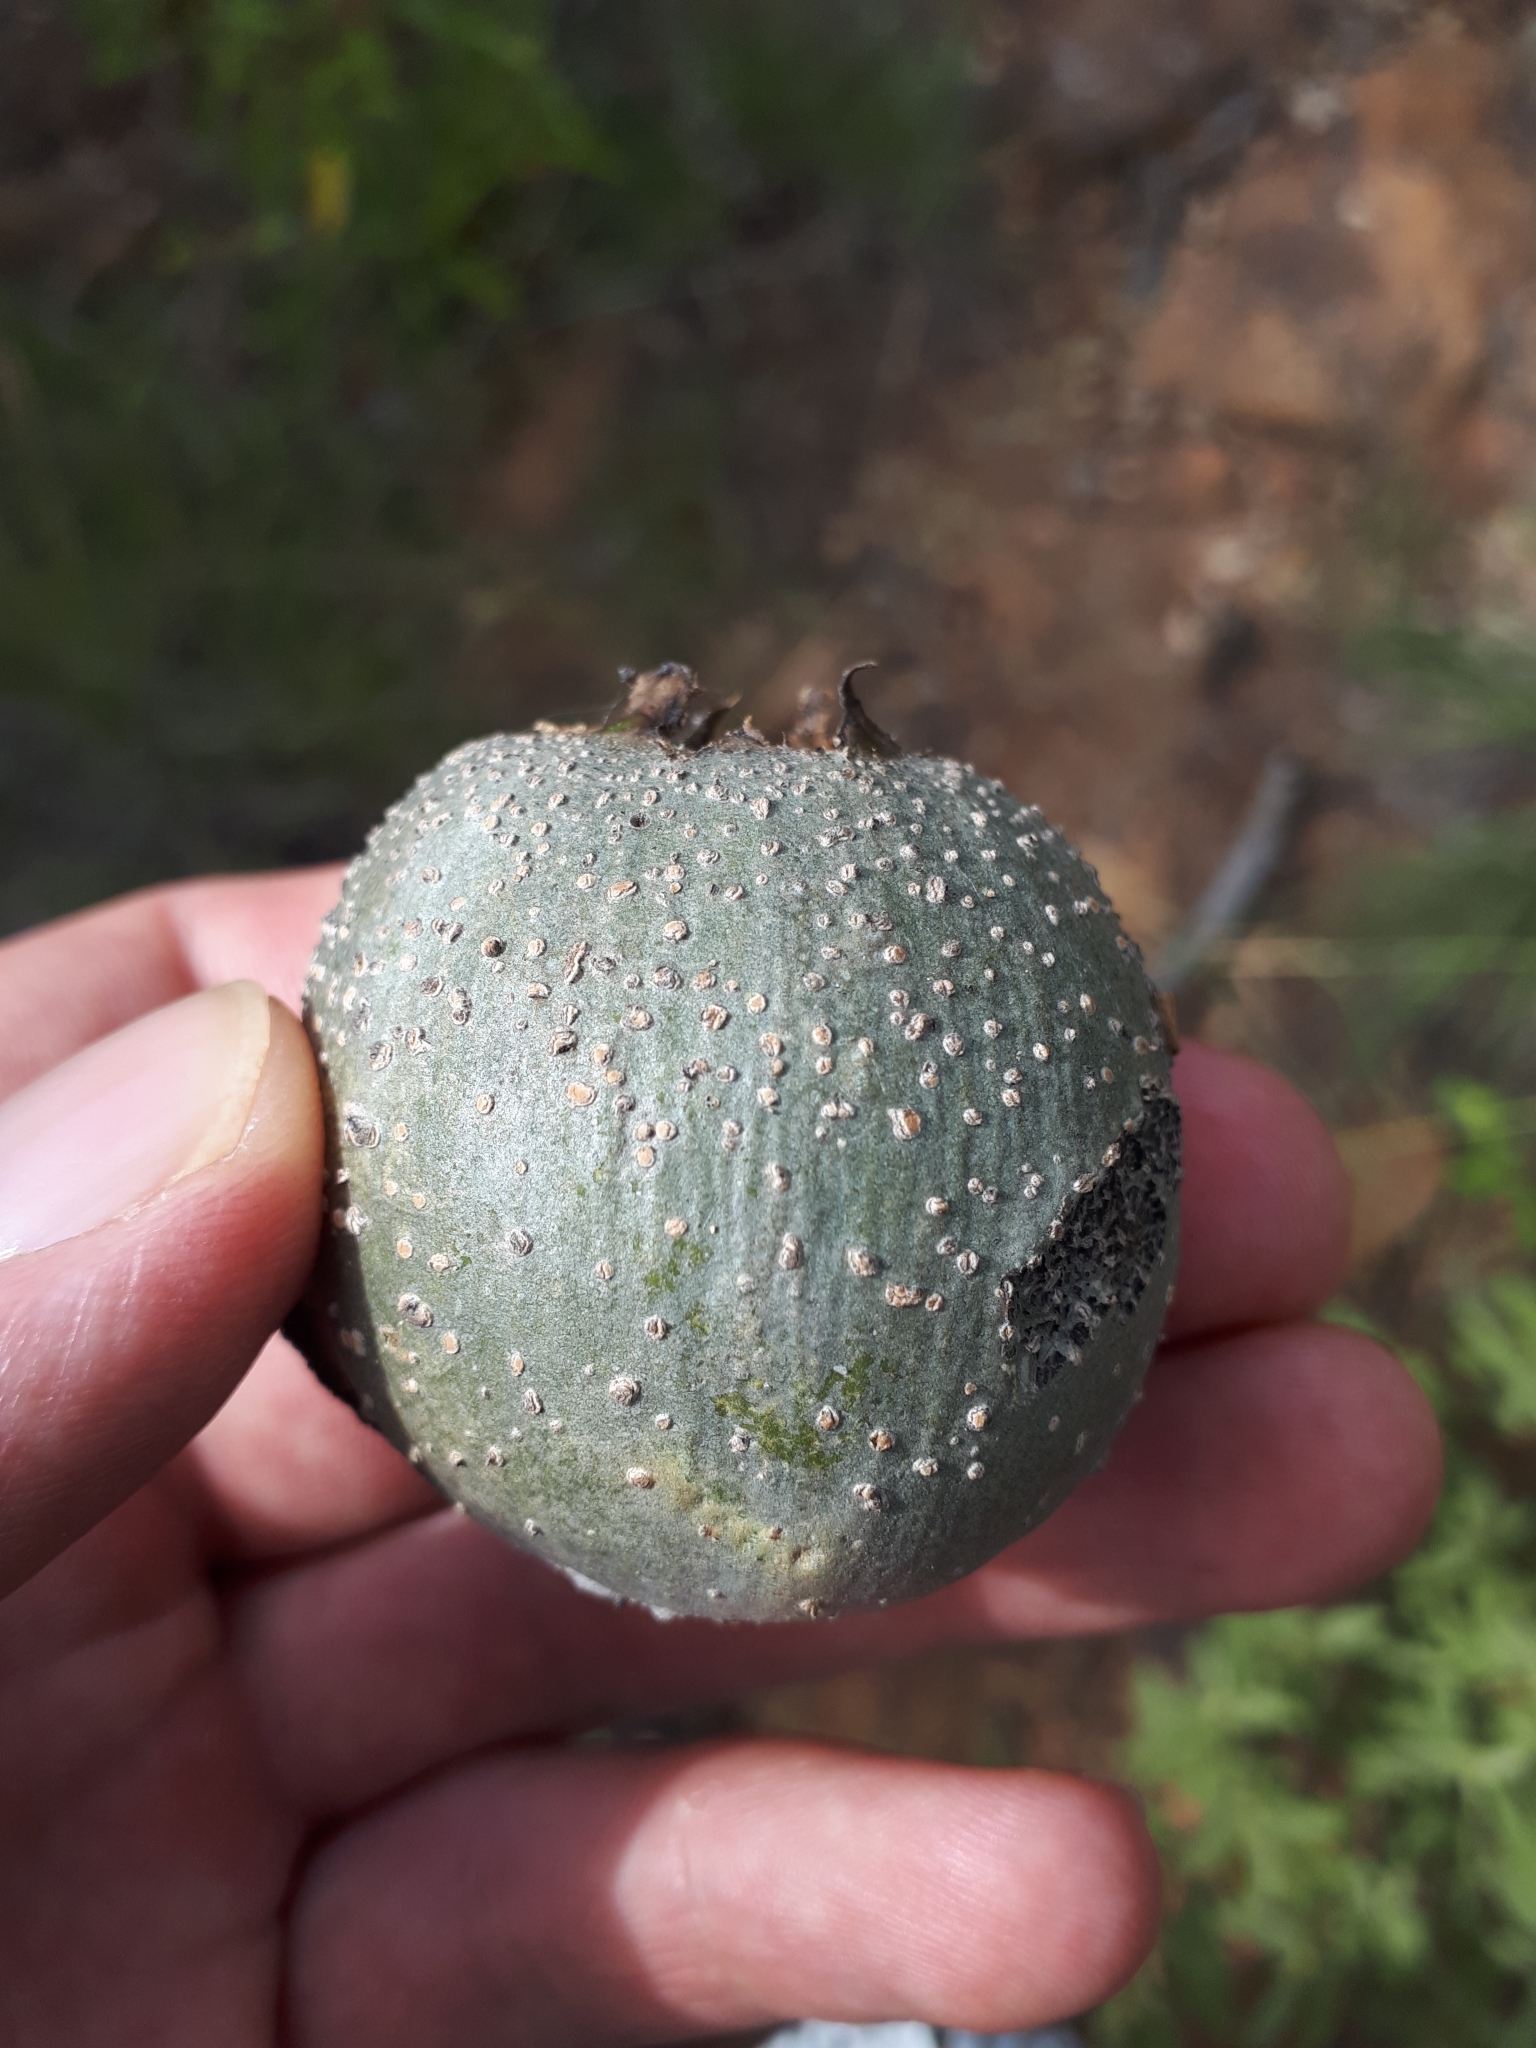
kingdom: Plantae
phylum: Tracheophyta
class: Magnoliopsida
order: Gentianales
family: Rubiaceae
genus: Gardenia
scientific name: Gardenia volkensii
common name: Common gardenia
